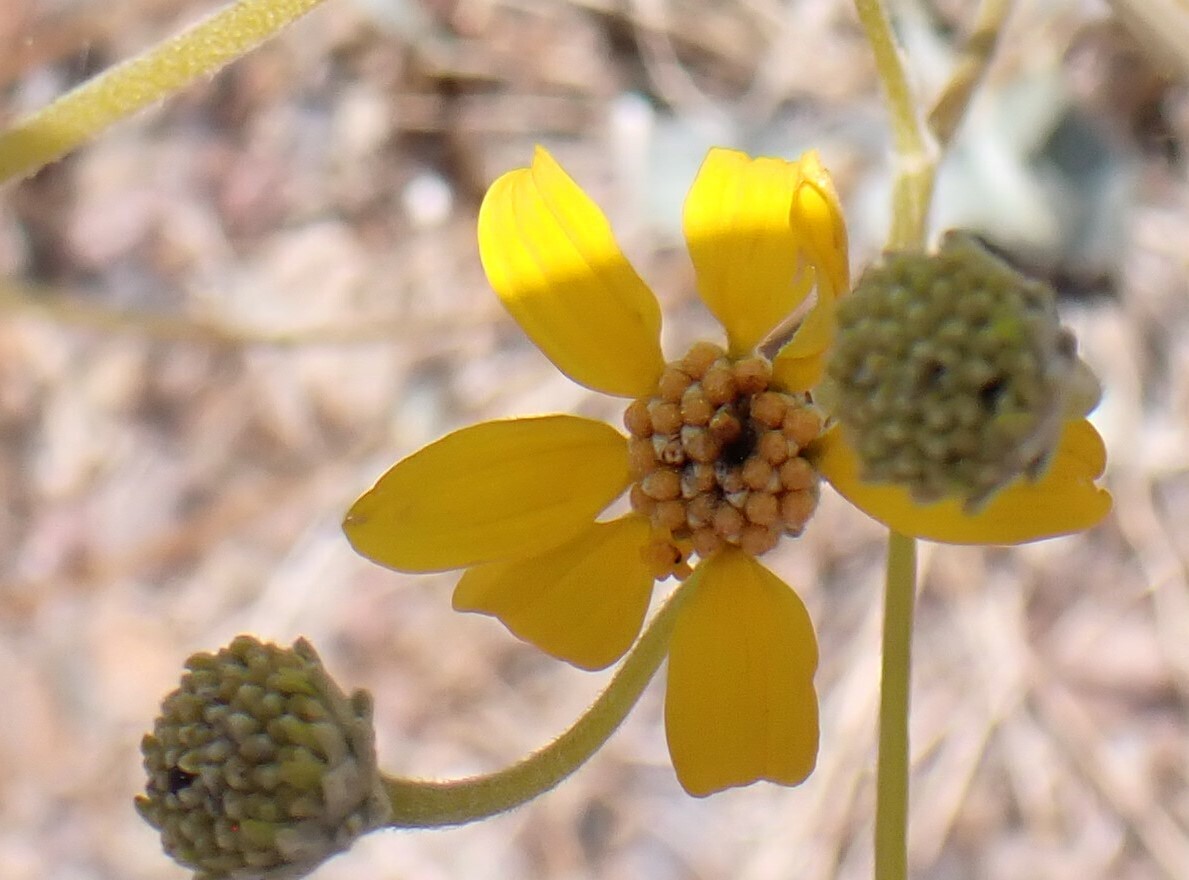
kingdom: Plantae
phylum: Tracheophyta
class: Magnoliopsida
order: Asterales
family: Asteraceae
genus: Bahiopsis
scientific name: Bahiopsis reticulata
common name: Death valley goldeneye
